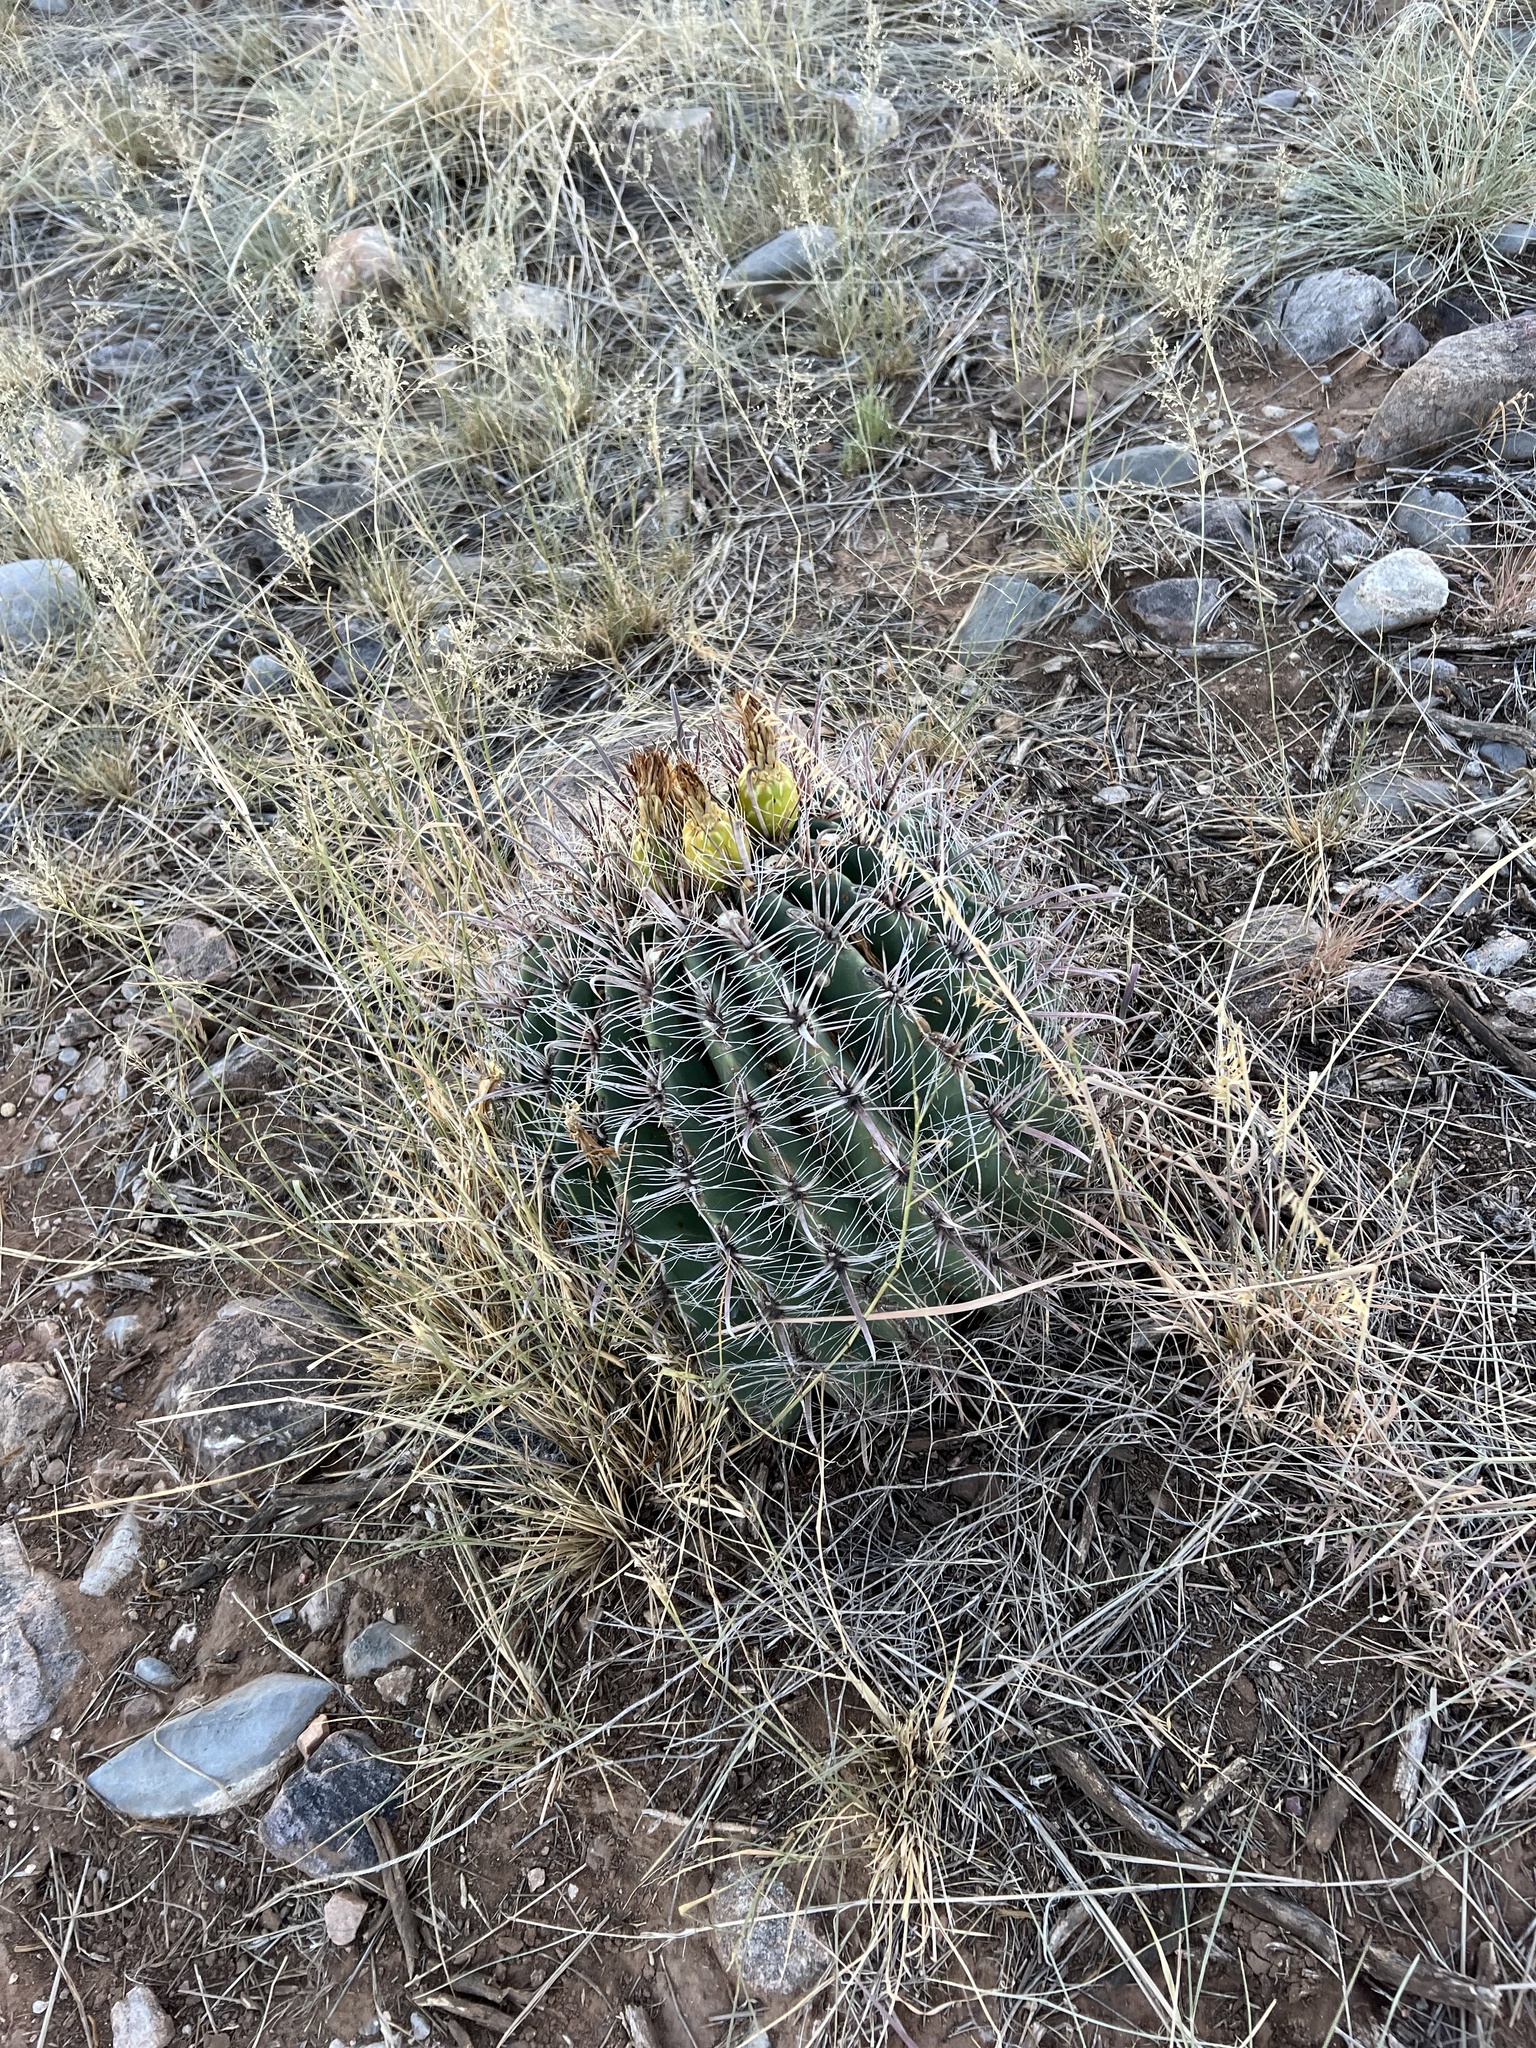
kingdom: Plantae
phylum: Tracheophyta
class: Magnoliopsida
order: Caryophyllales
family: Cactaceae
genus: Ferocactus
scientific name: Ferocactus wislizeni
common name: Candy barrel cactus
